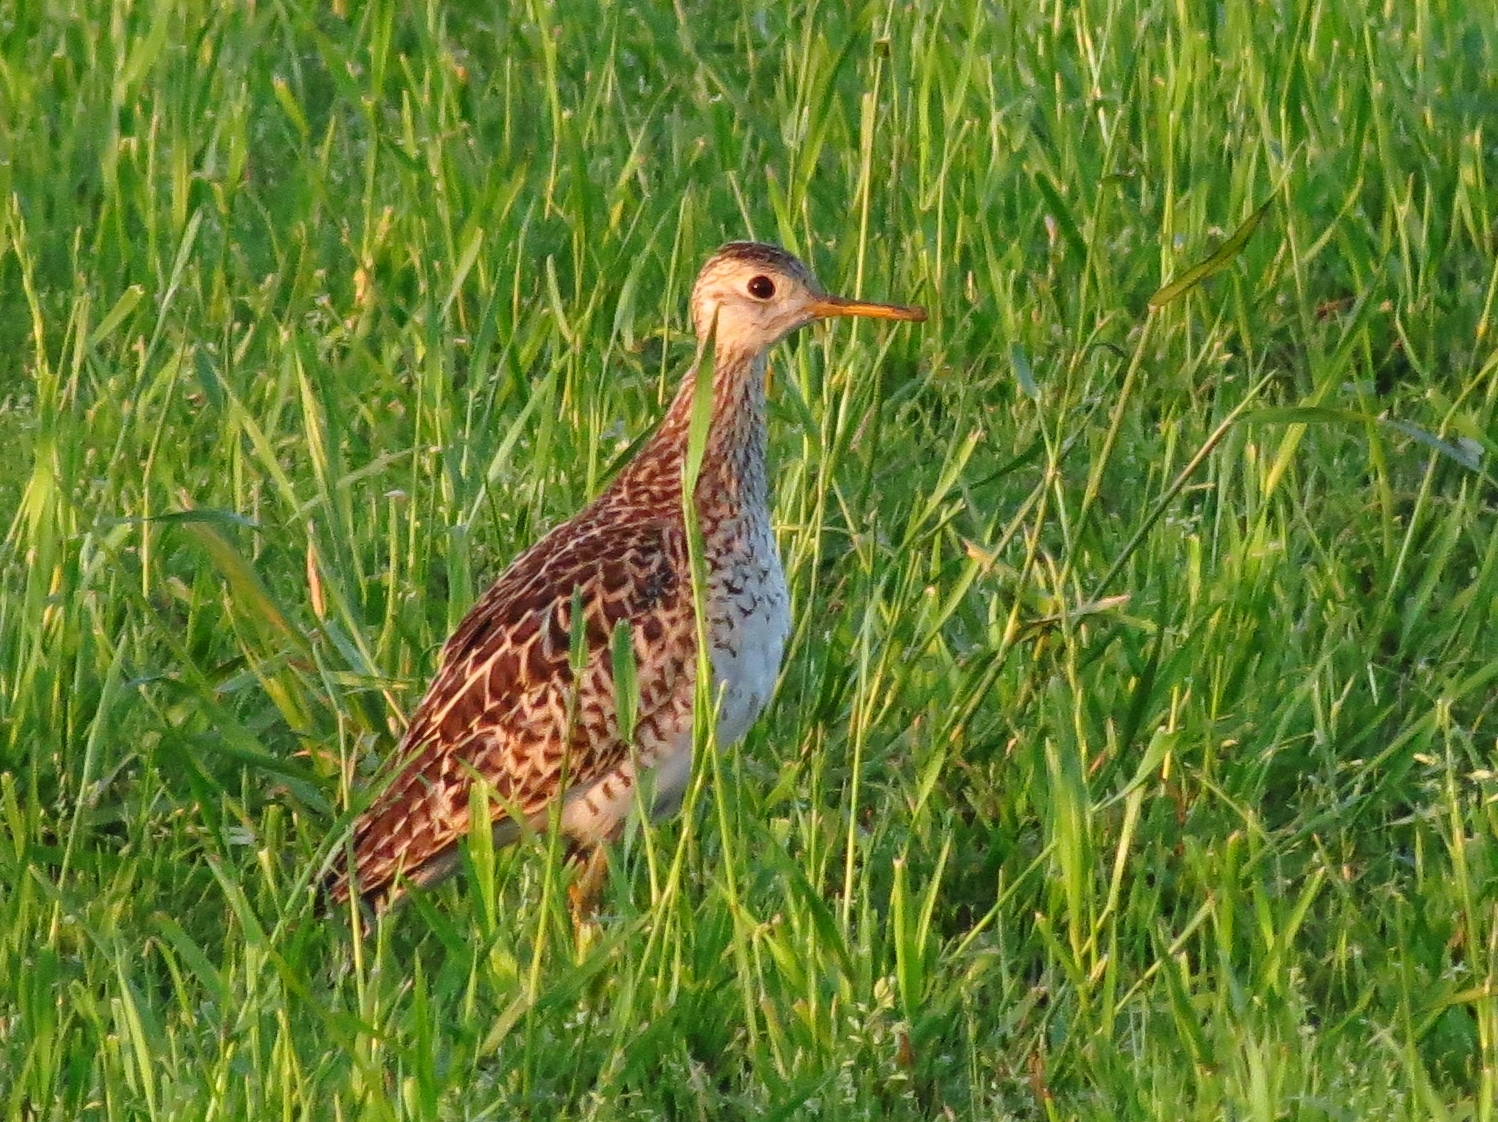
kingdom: Animalia
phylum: Chordata
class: Aves
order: Charadriiformes
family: Scolopacidae
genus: Bartramia
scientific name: Bartramia longicauda
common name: Upland sandpiper
